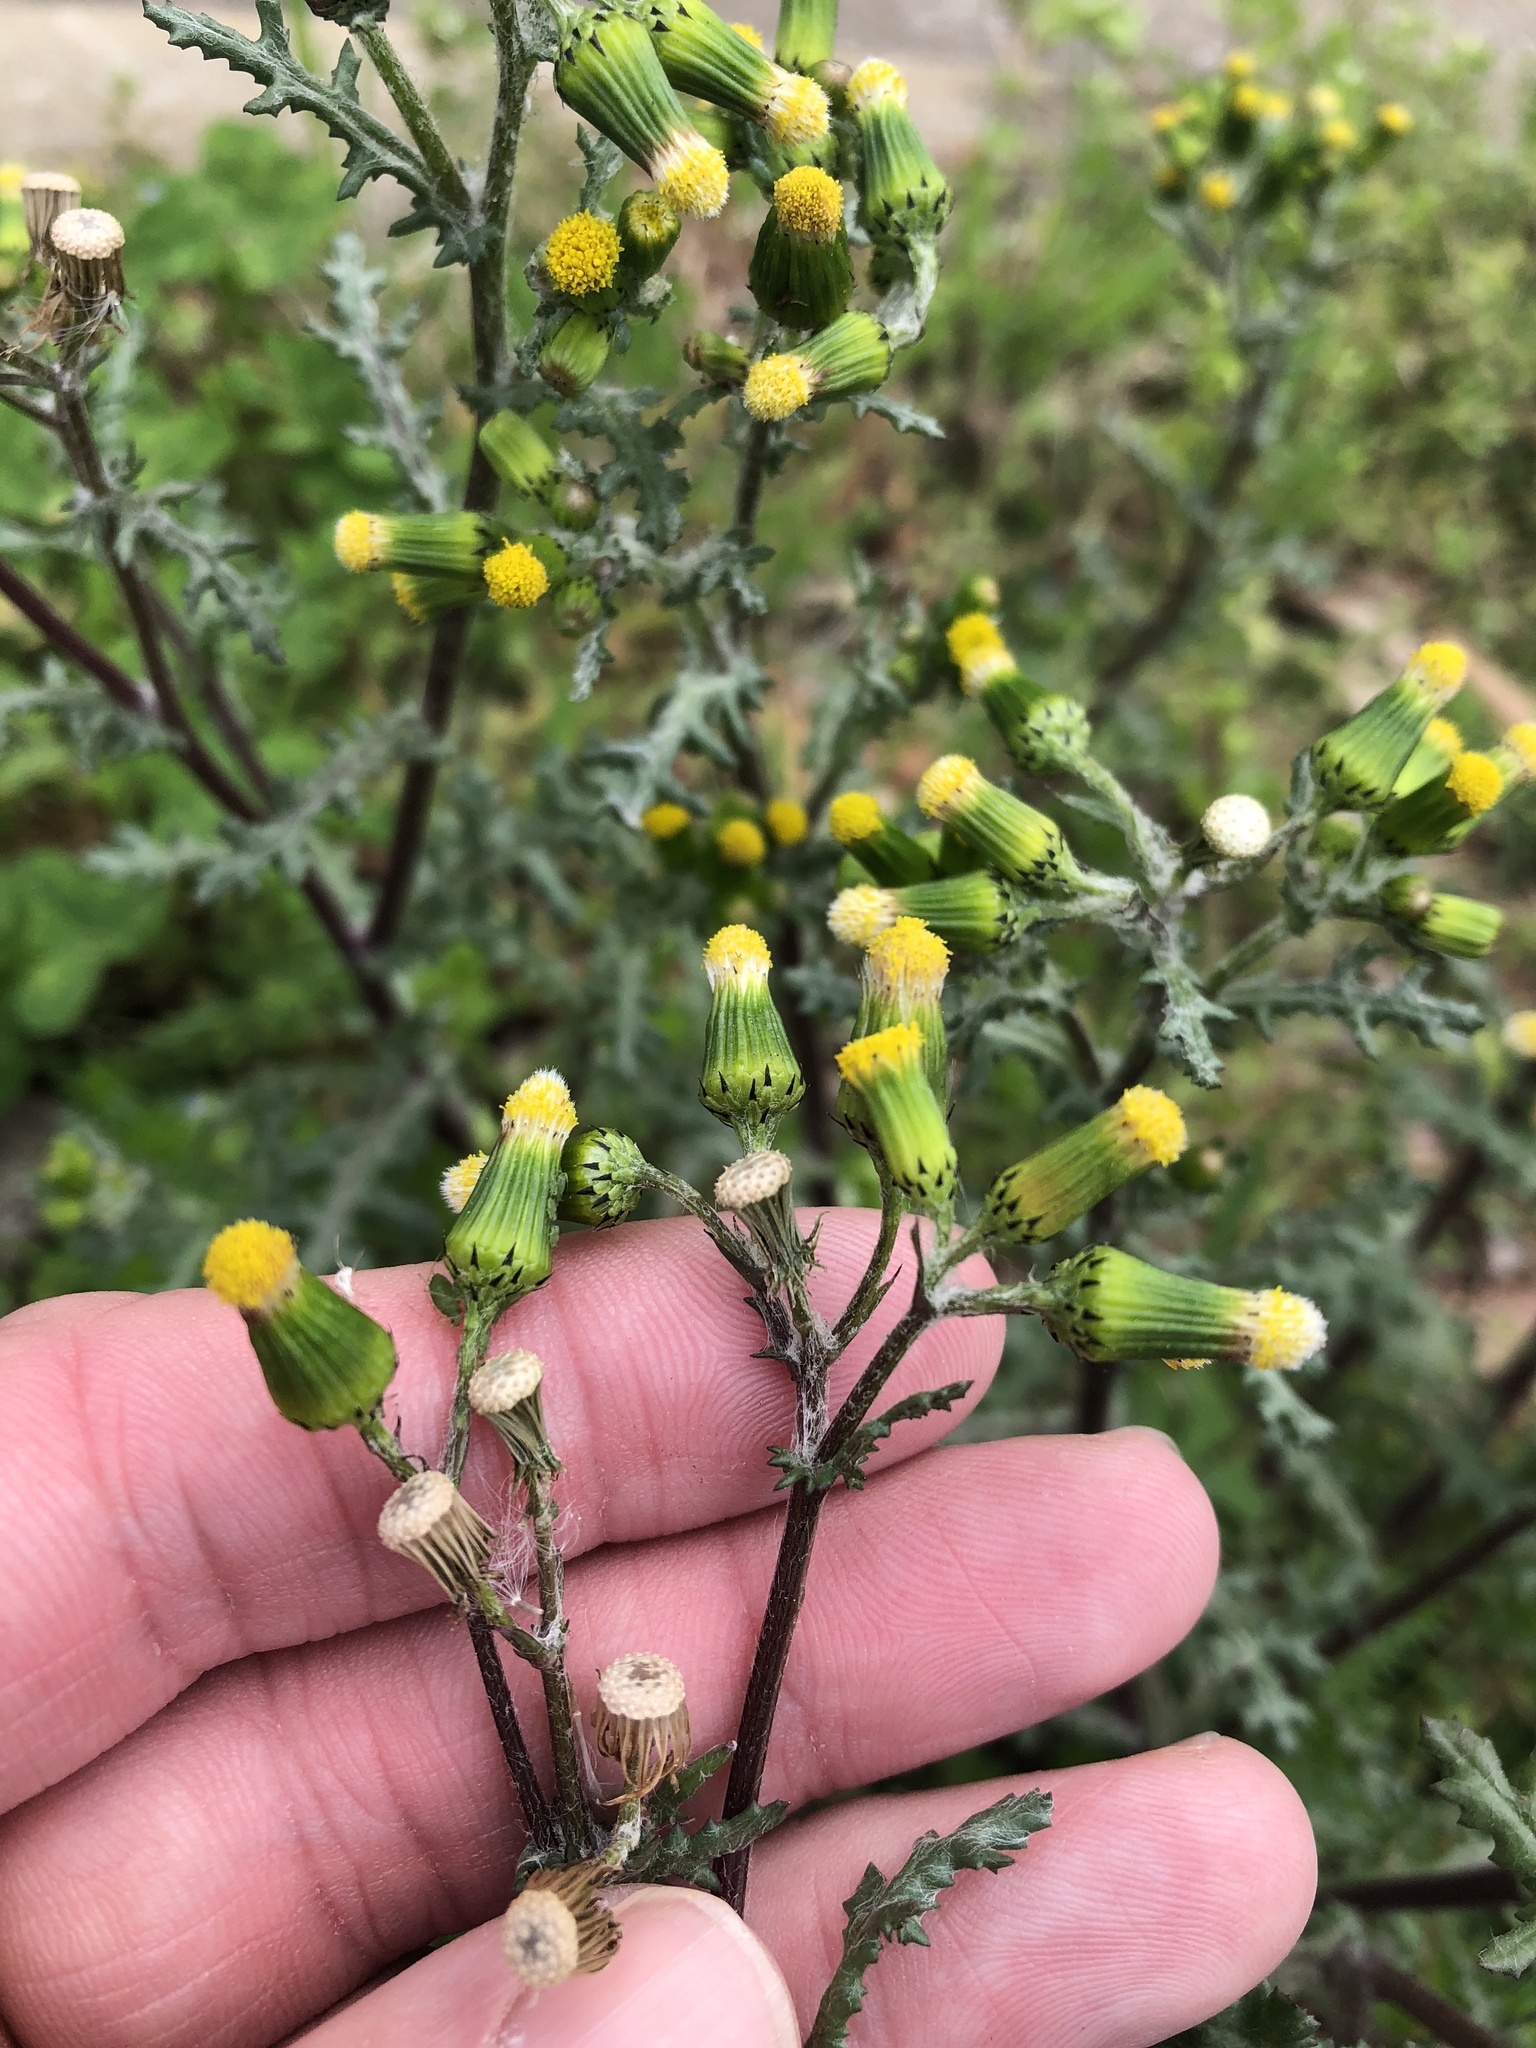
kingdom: Plantae
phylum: Tracheophyta
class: Magnoliopsida
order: Asterales
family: Asteraceae
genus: Senecio
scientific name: Senecio vulgaris
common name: Old-man-in-the-spring
